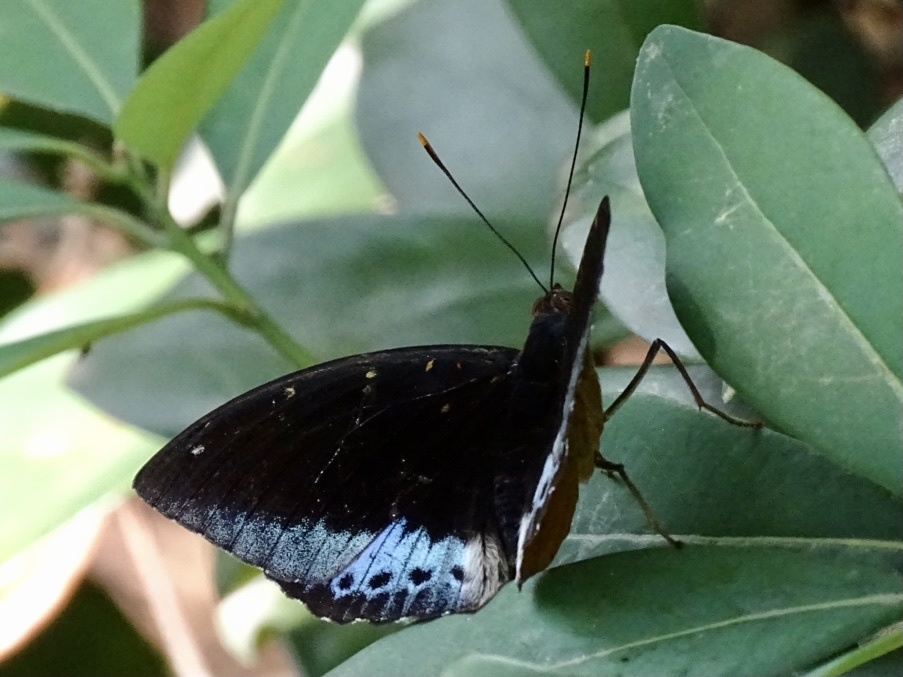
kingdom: Animalia
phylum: Arthropoda
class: Insecta
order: Lepidoptera
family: Nymphalidae
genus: Lexias
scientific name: Lexias pardalis
